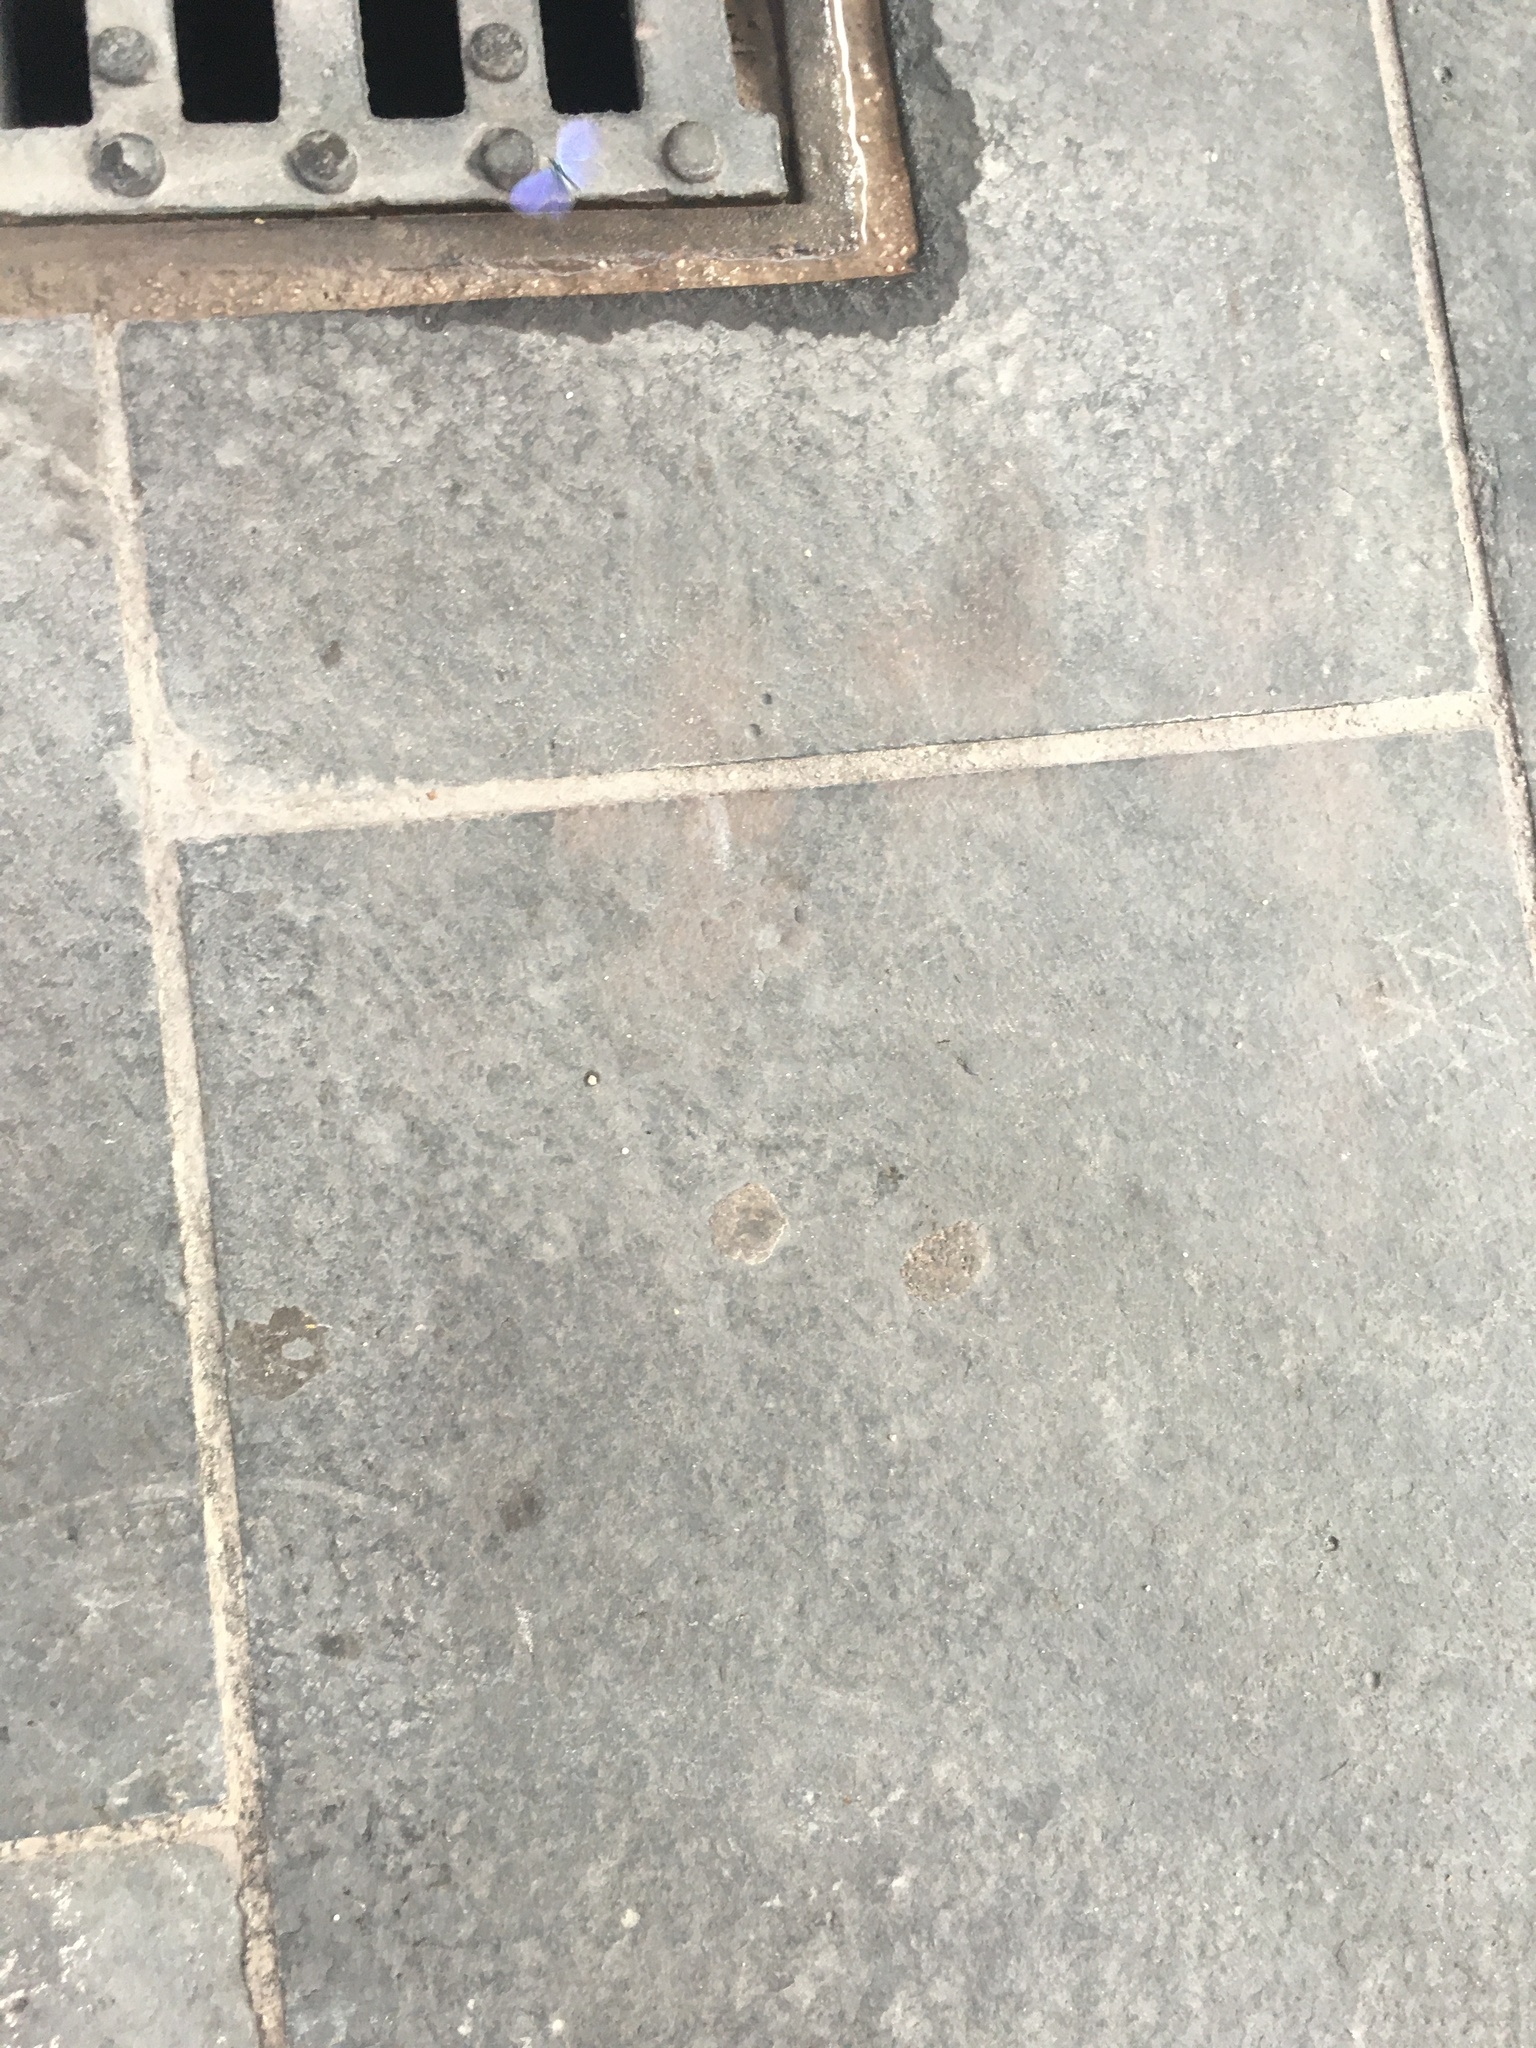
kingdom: Animalia
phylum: Arthropoda
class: Insecta
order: Lepidoptera
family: Lycaenidae
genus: Celastrina
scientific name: Celastrina argiolus
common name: Holly blue
